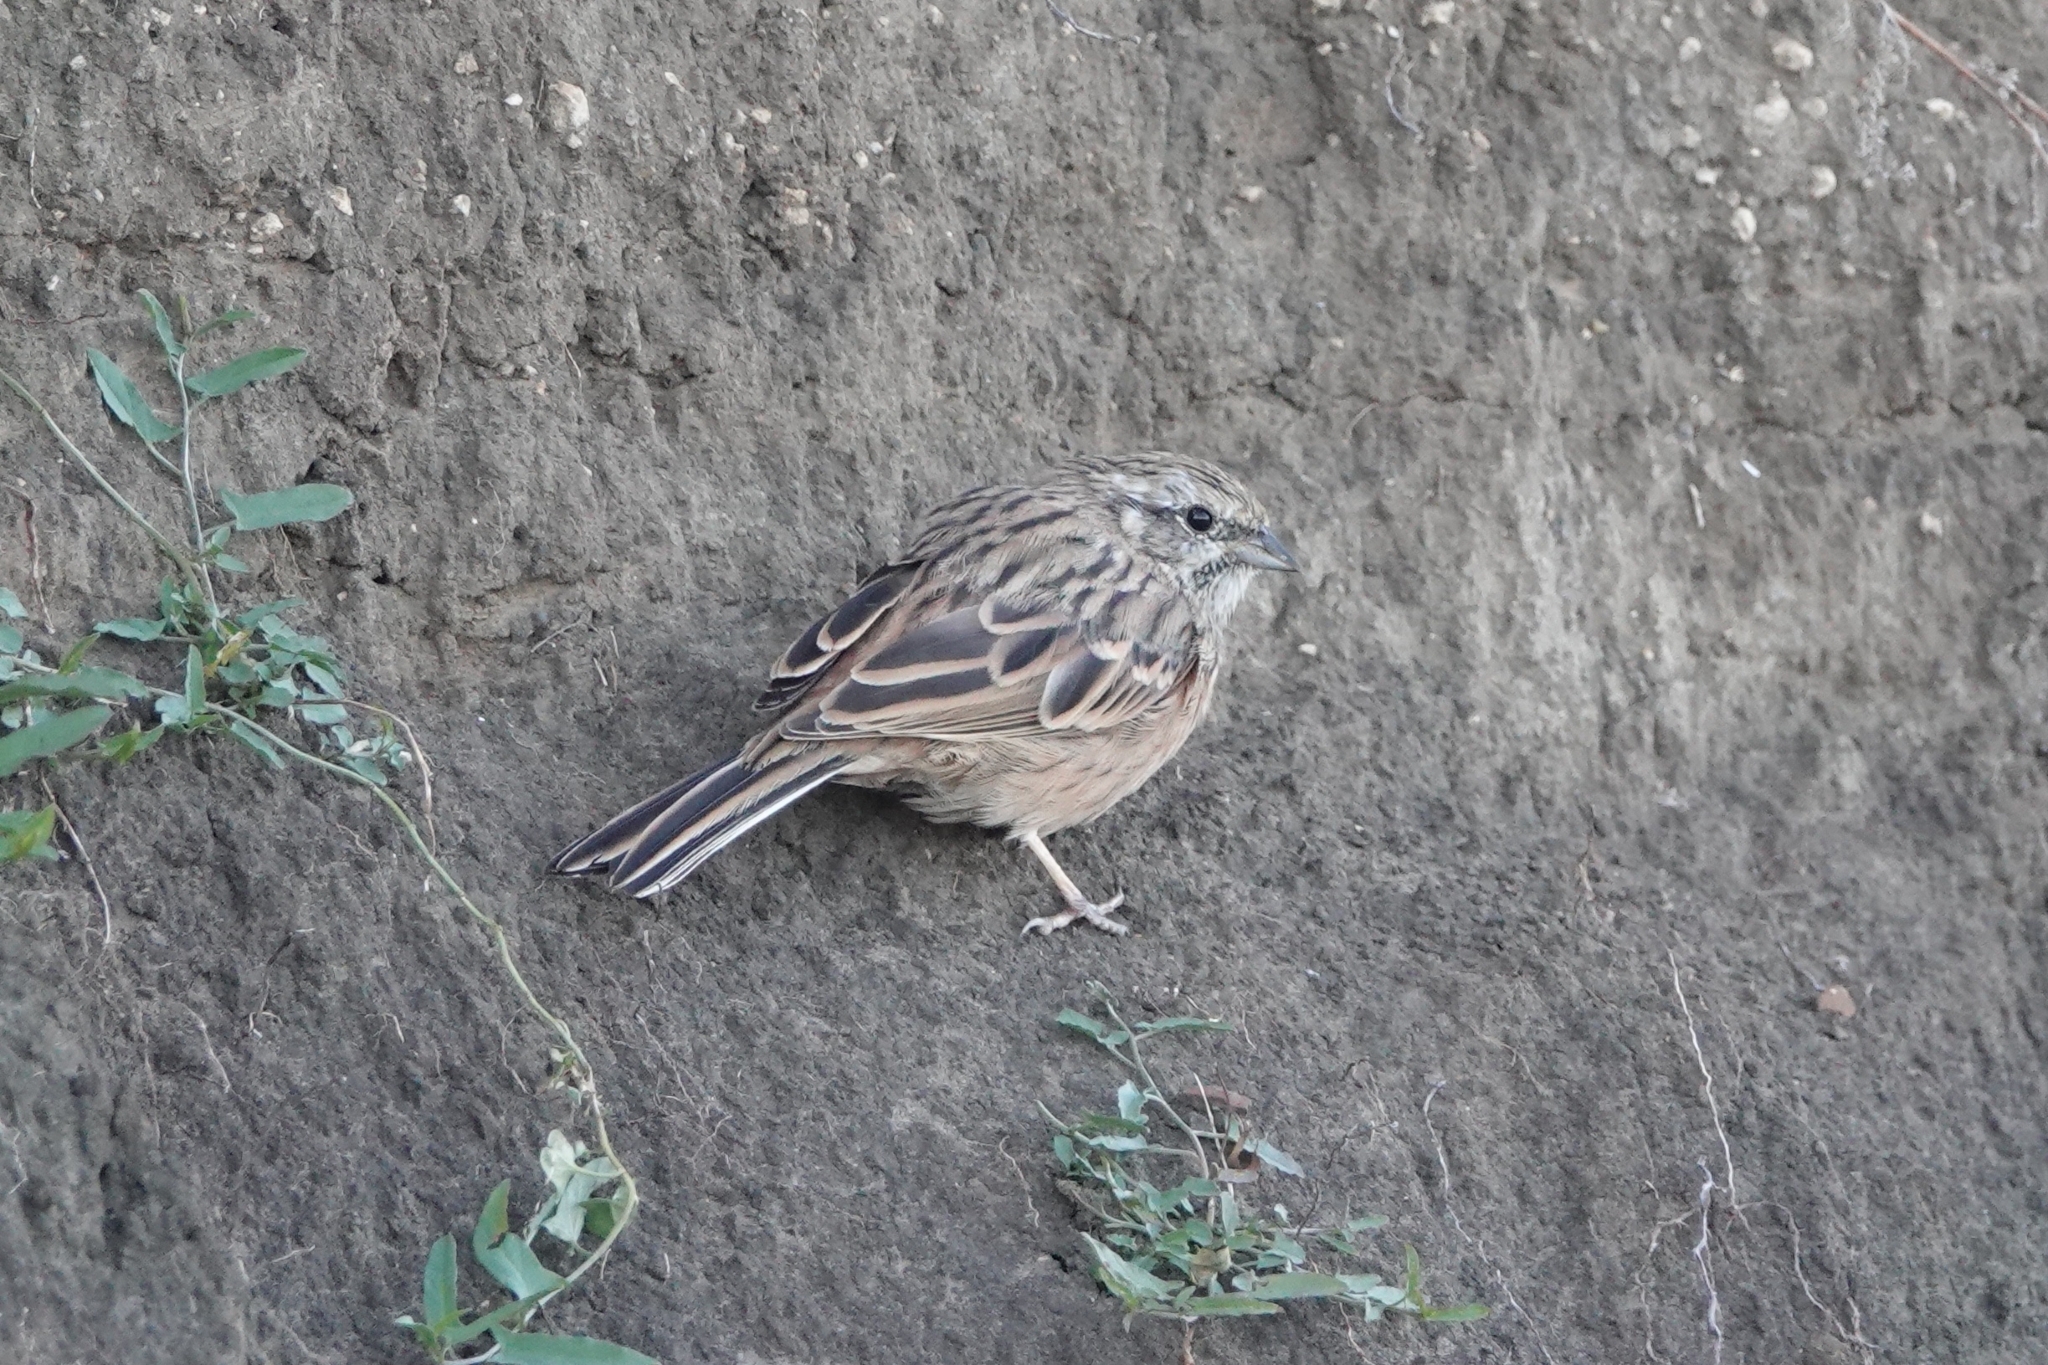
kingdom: Animalia
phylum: Chordata
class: Aves
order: Passeriformes
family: Emberizidae
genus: Emberiza
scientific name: Emberiza cia
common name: Rock bunting
